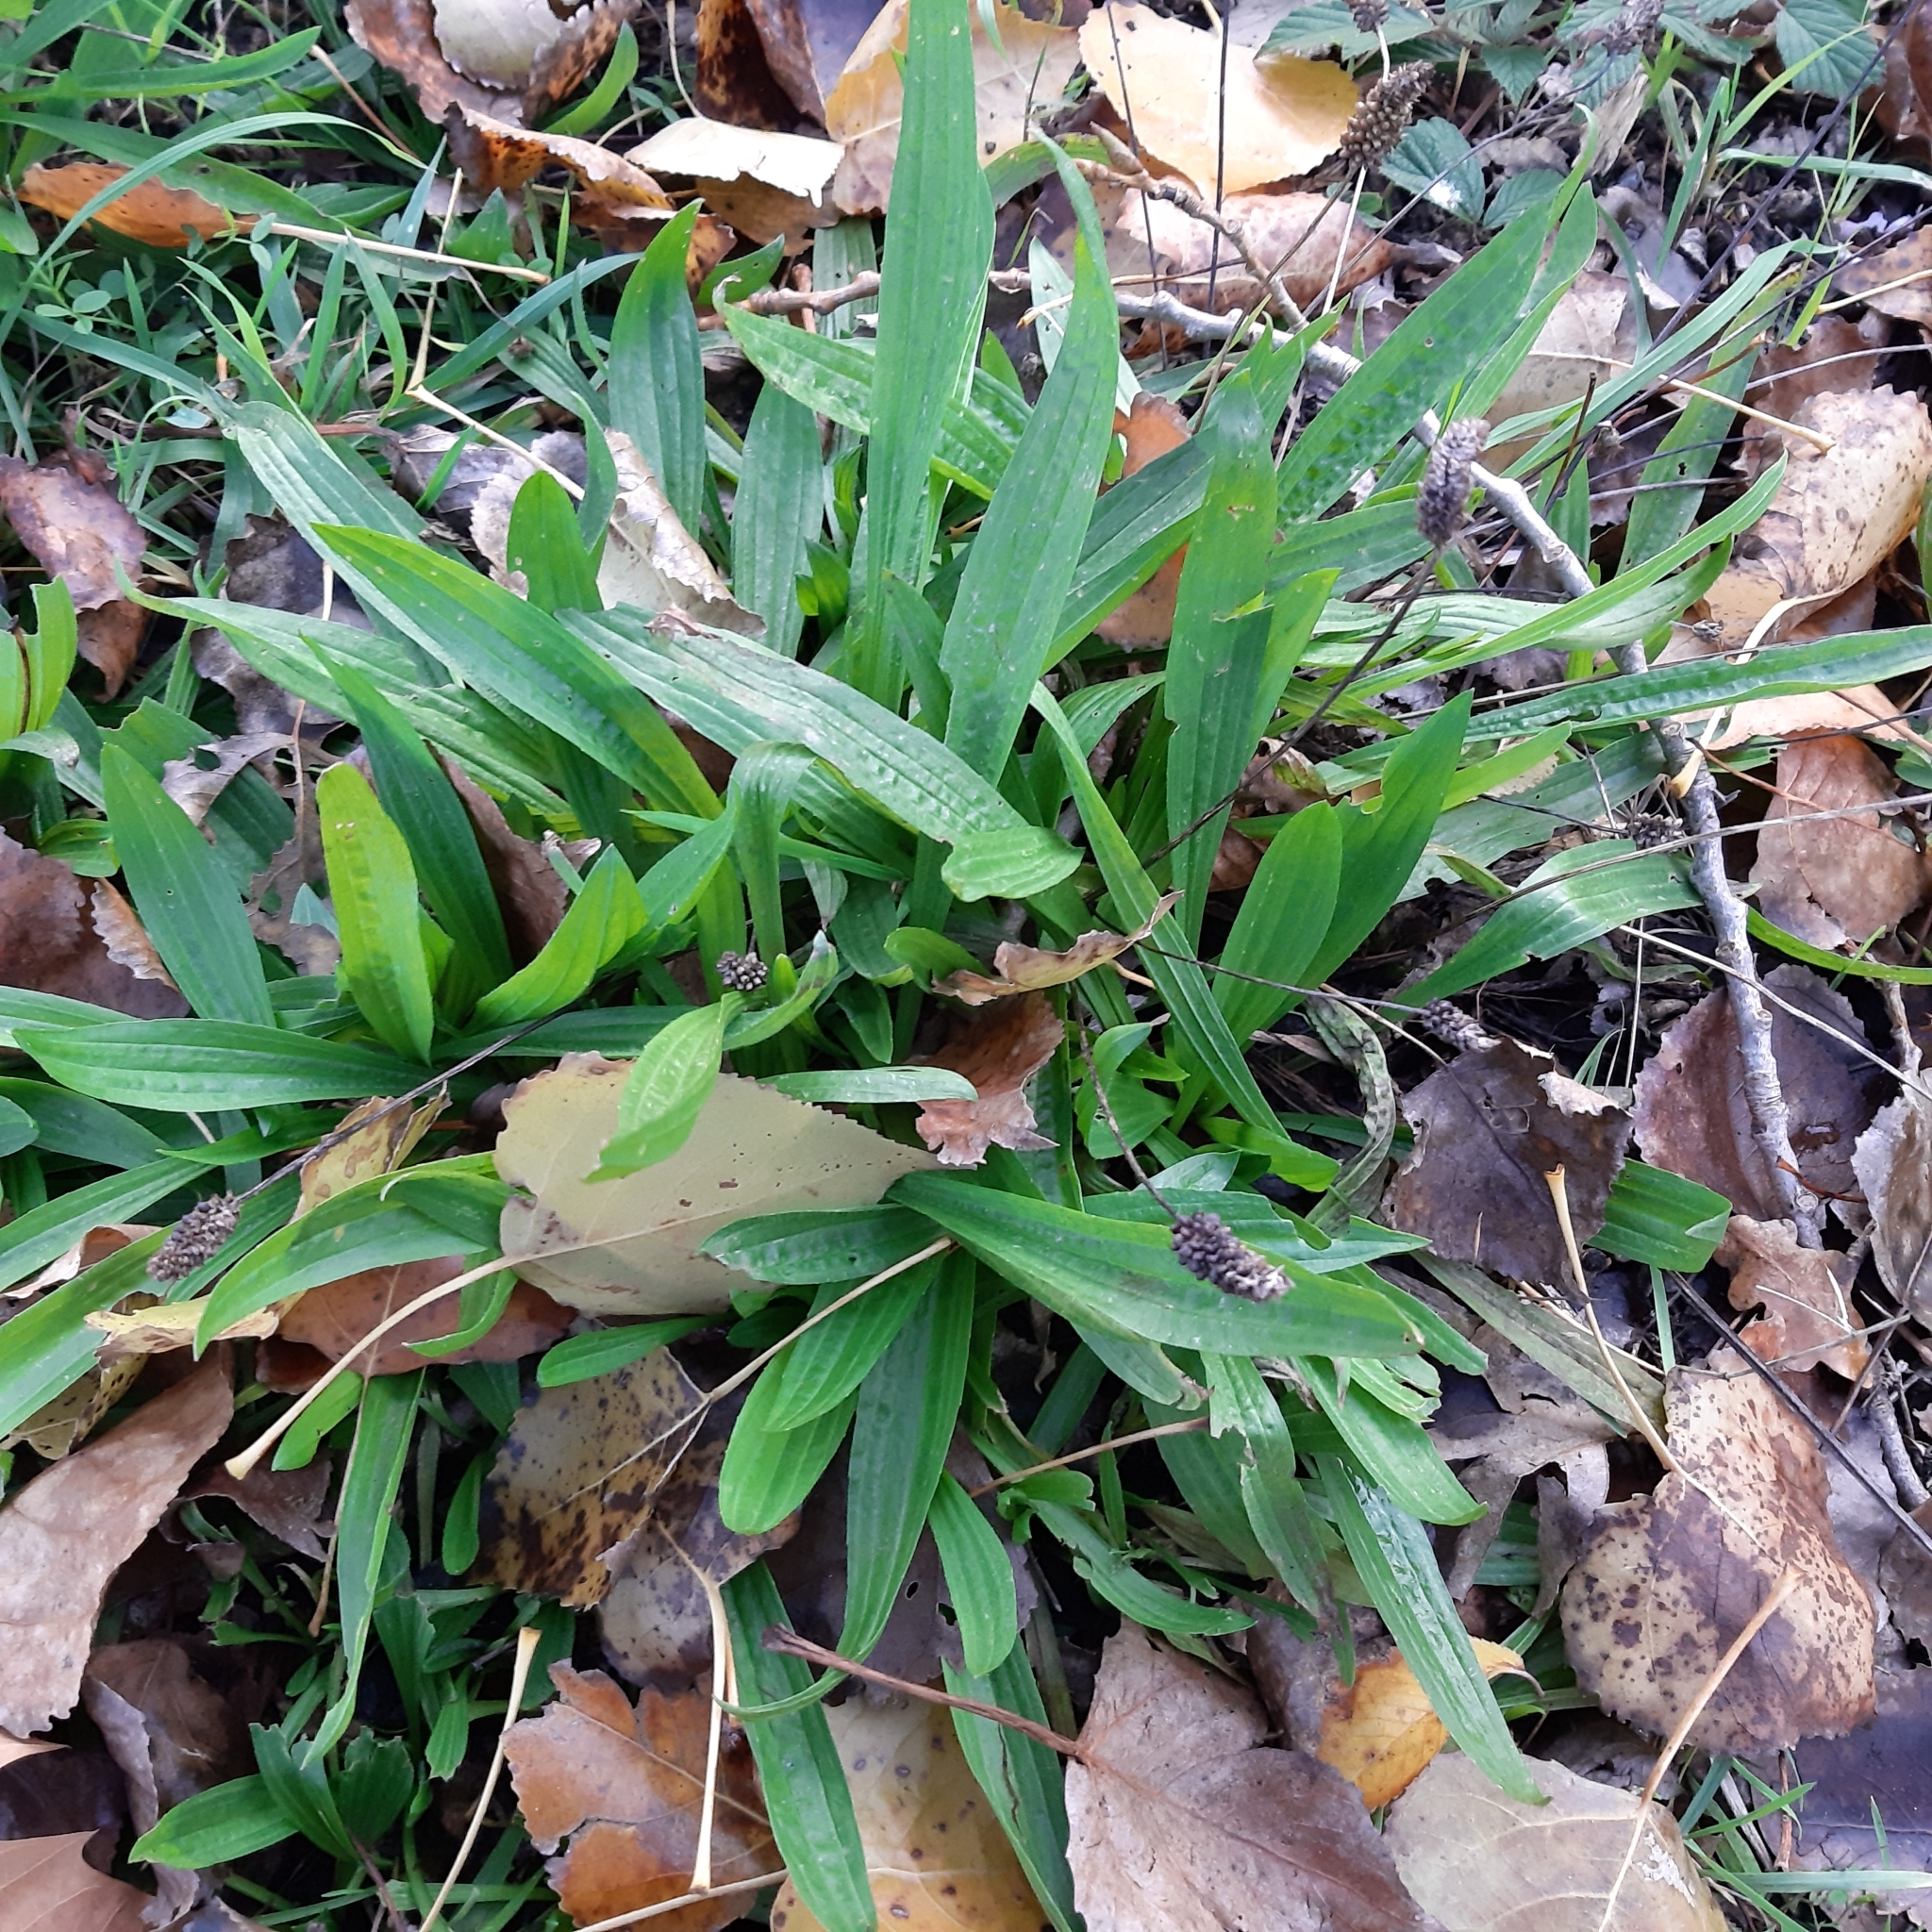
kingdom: Plantae
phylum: Tracheophyta
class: Magnoliopsida
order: Lamiales
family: Plantaginaceae
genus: Plantago
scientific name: Plantago lanceolata
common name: Ribwort plantain
